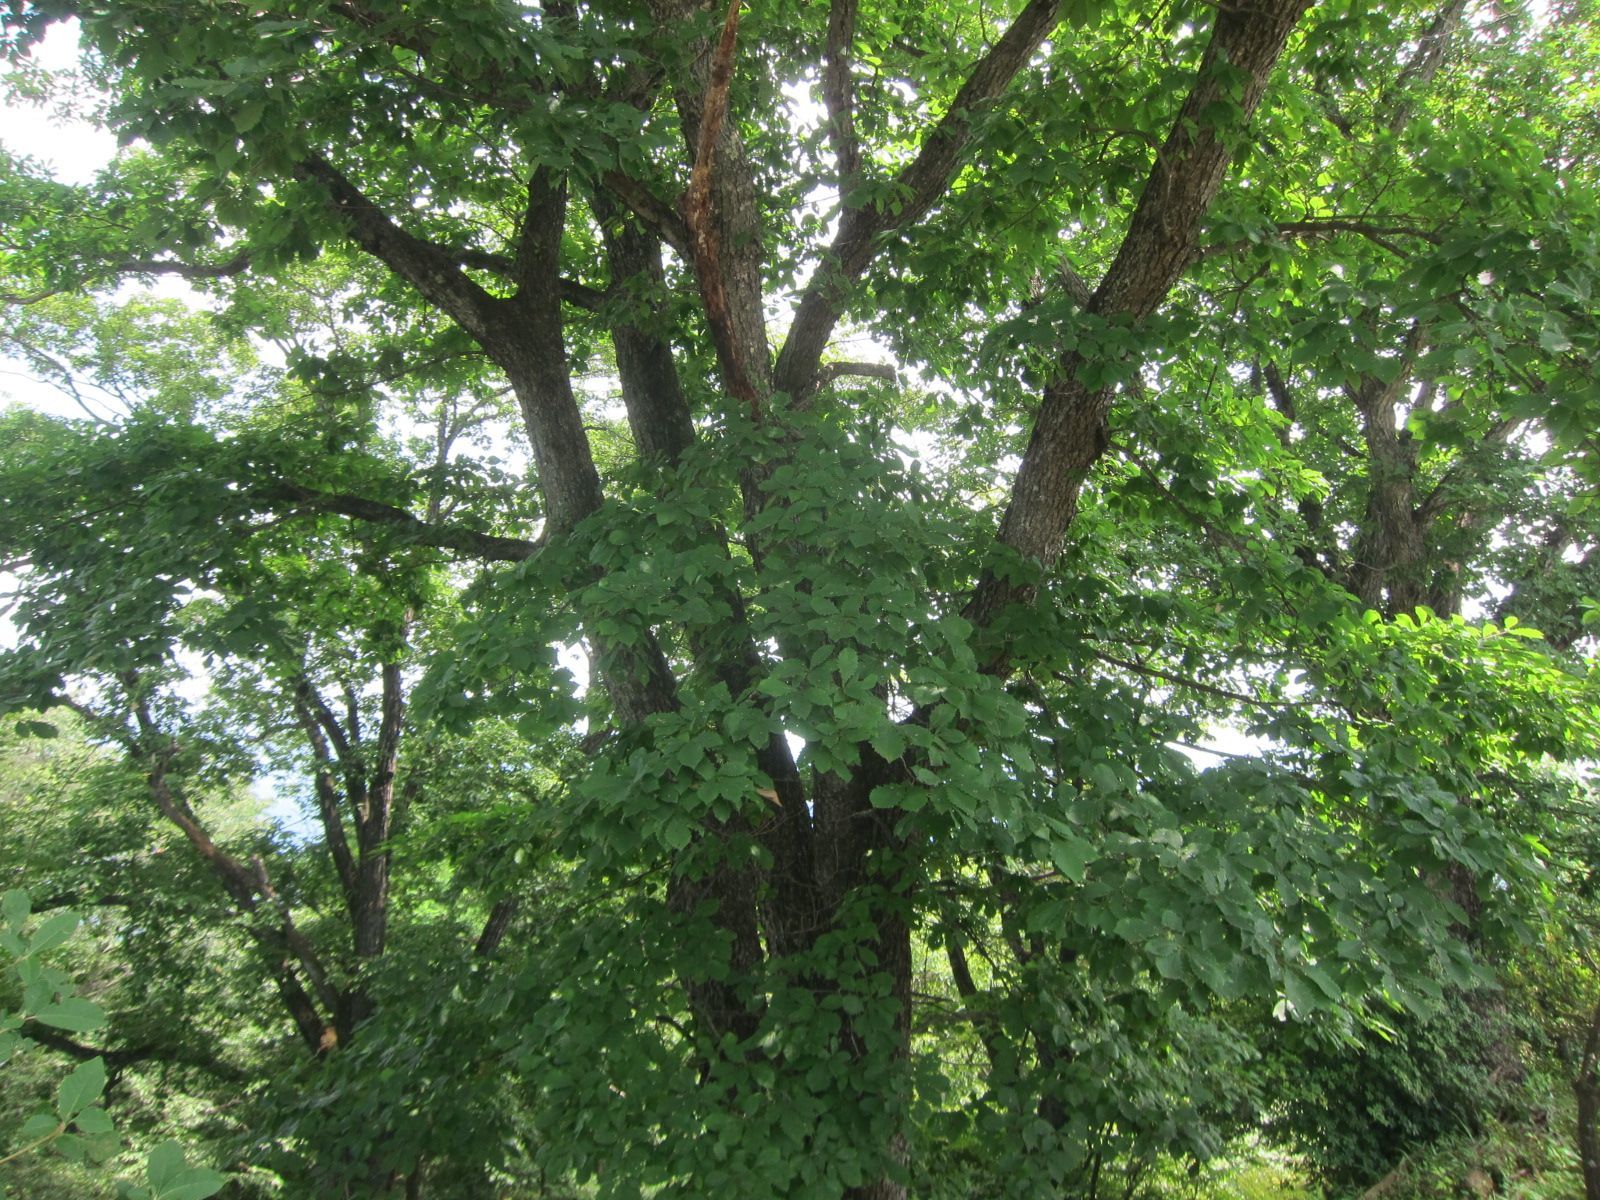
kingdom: Plantae
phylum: Tracheophyta
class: Magnoliopsida
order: Fagales
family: Fagaceae
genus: Quercus
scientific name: Quercus crispula
